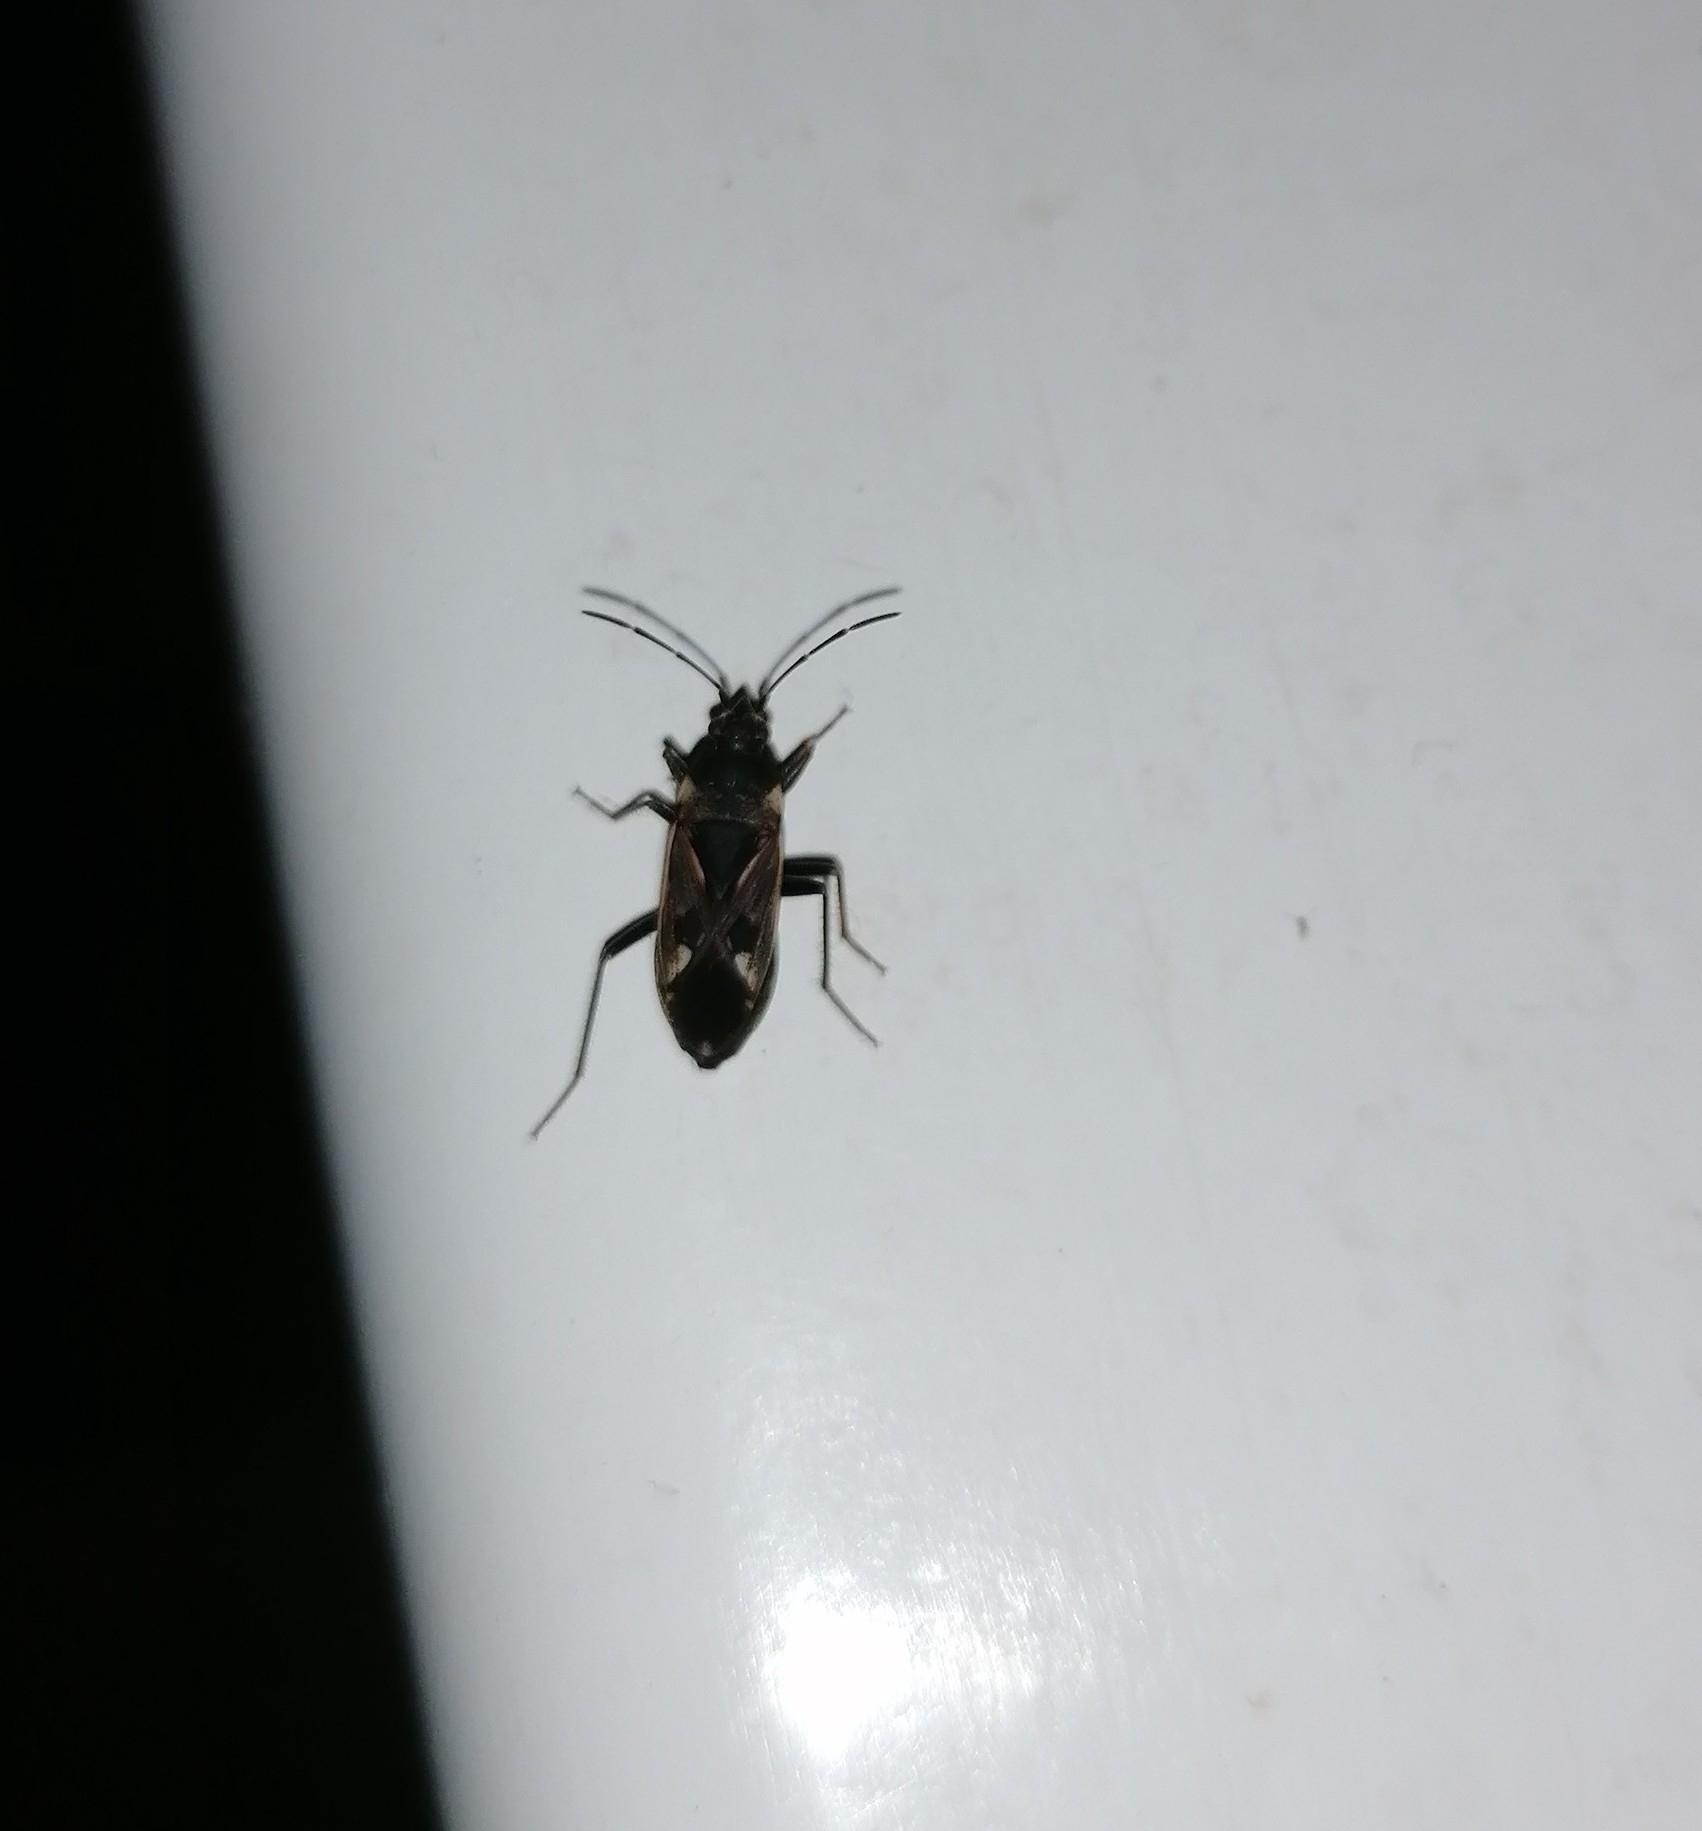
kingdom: Animalia
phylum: Arthropoda
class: Insecta
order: Hemiptera
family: Rhyparochromidae
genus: Rhyparochromus
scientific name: Rhyparochromus vulgaris
